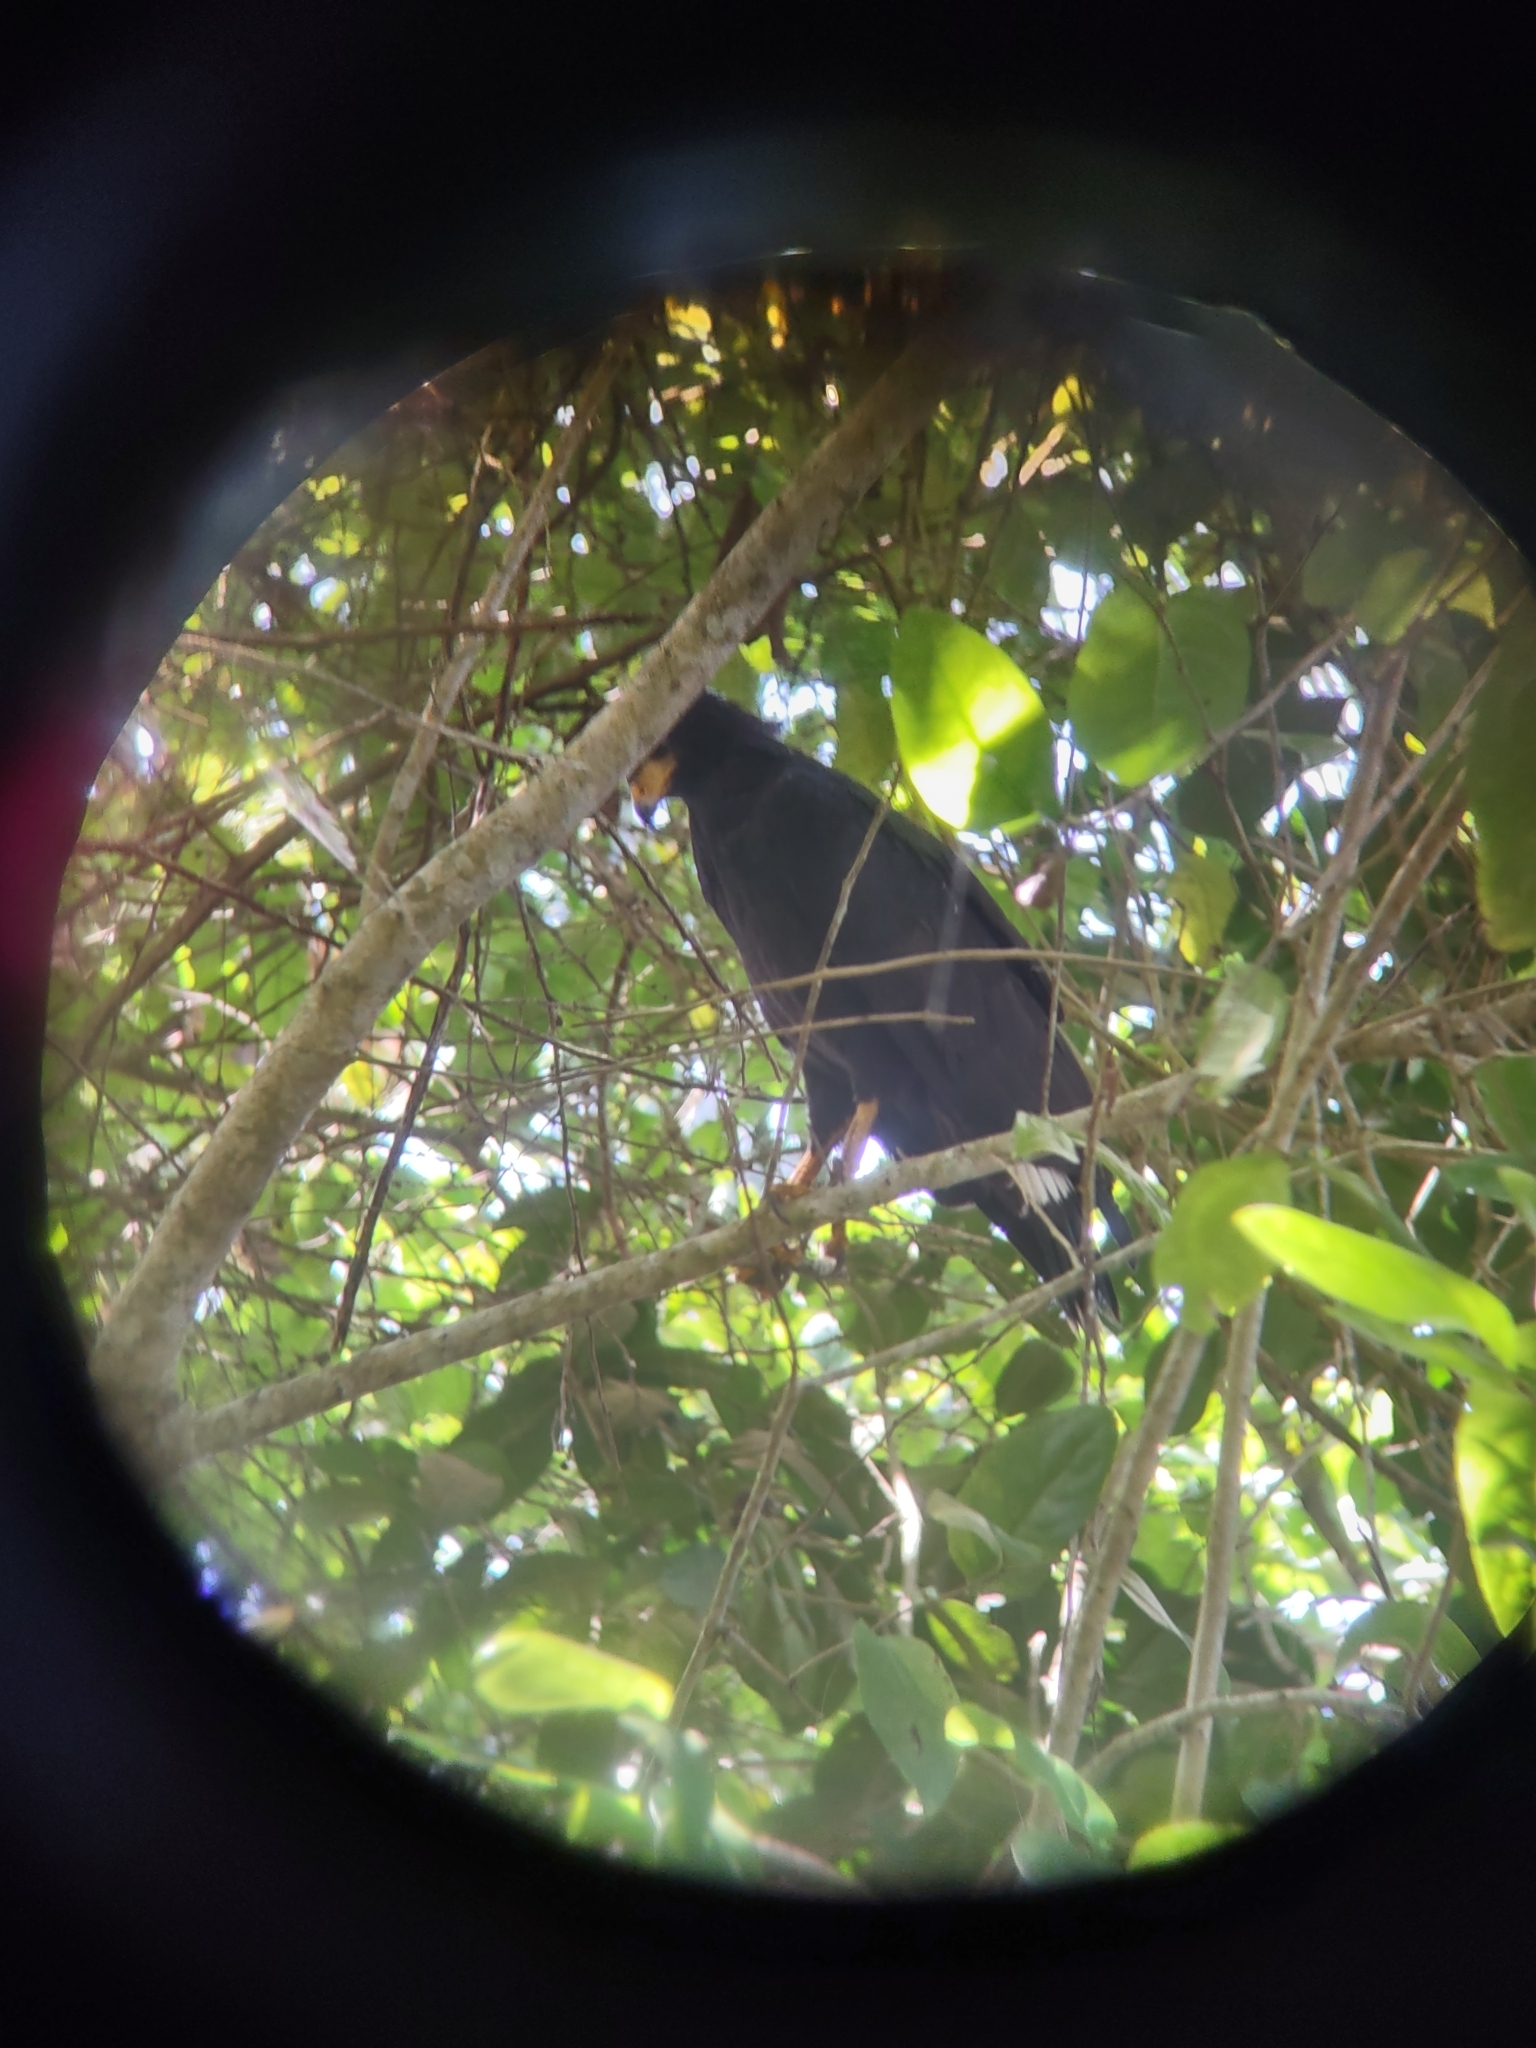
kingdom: Animalia
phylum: Chordata
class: Aves
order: Accipitriformes
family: Accipitridae
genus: Buteogallus
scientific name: Buteogallus anthracinus
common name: Common black hawk
